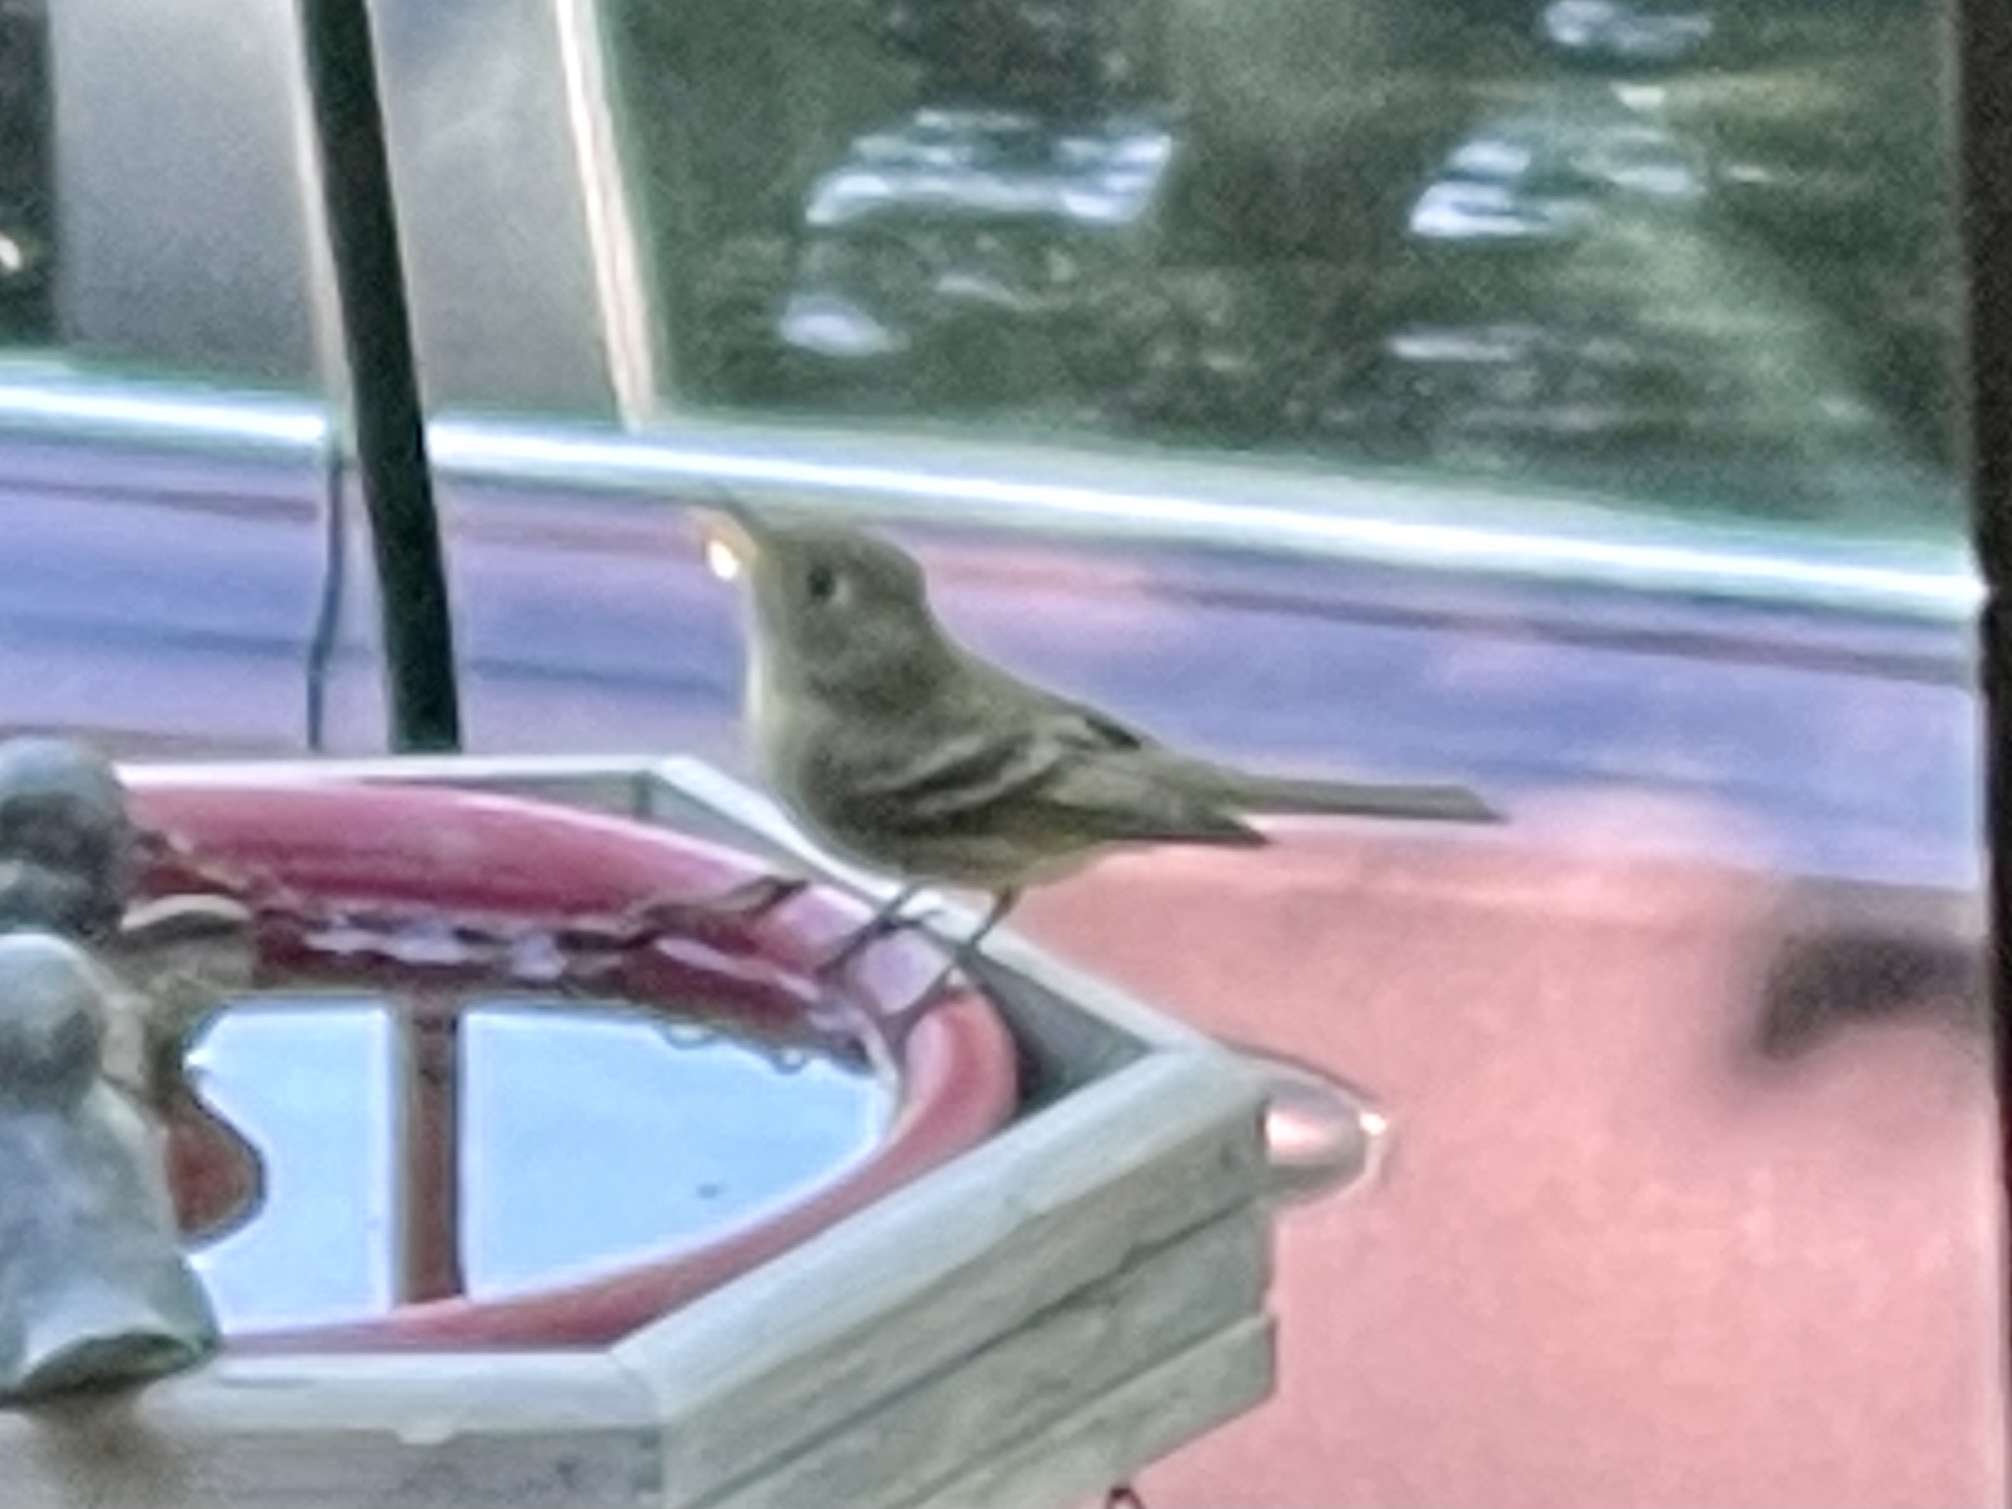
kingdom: Animalia
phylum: Chordata
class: Aves
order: Passeriformes
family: Tyrannidae
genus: Empidonax
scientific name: Empidonax difficilis
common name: Pacific-slope flycatcher
